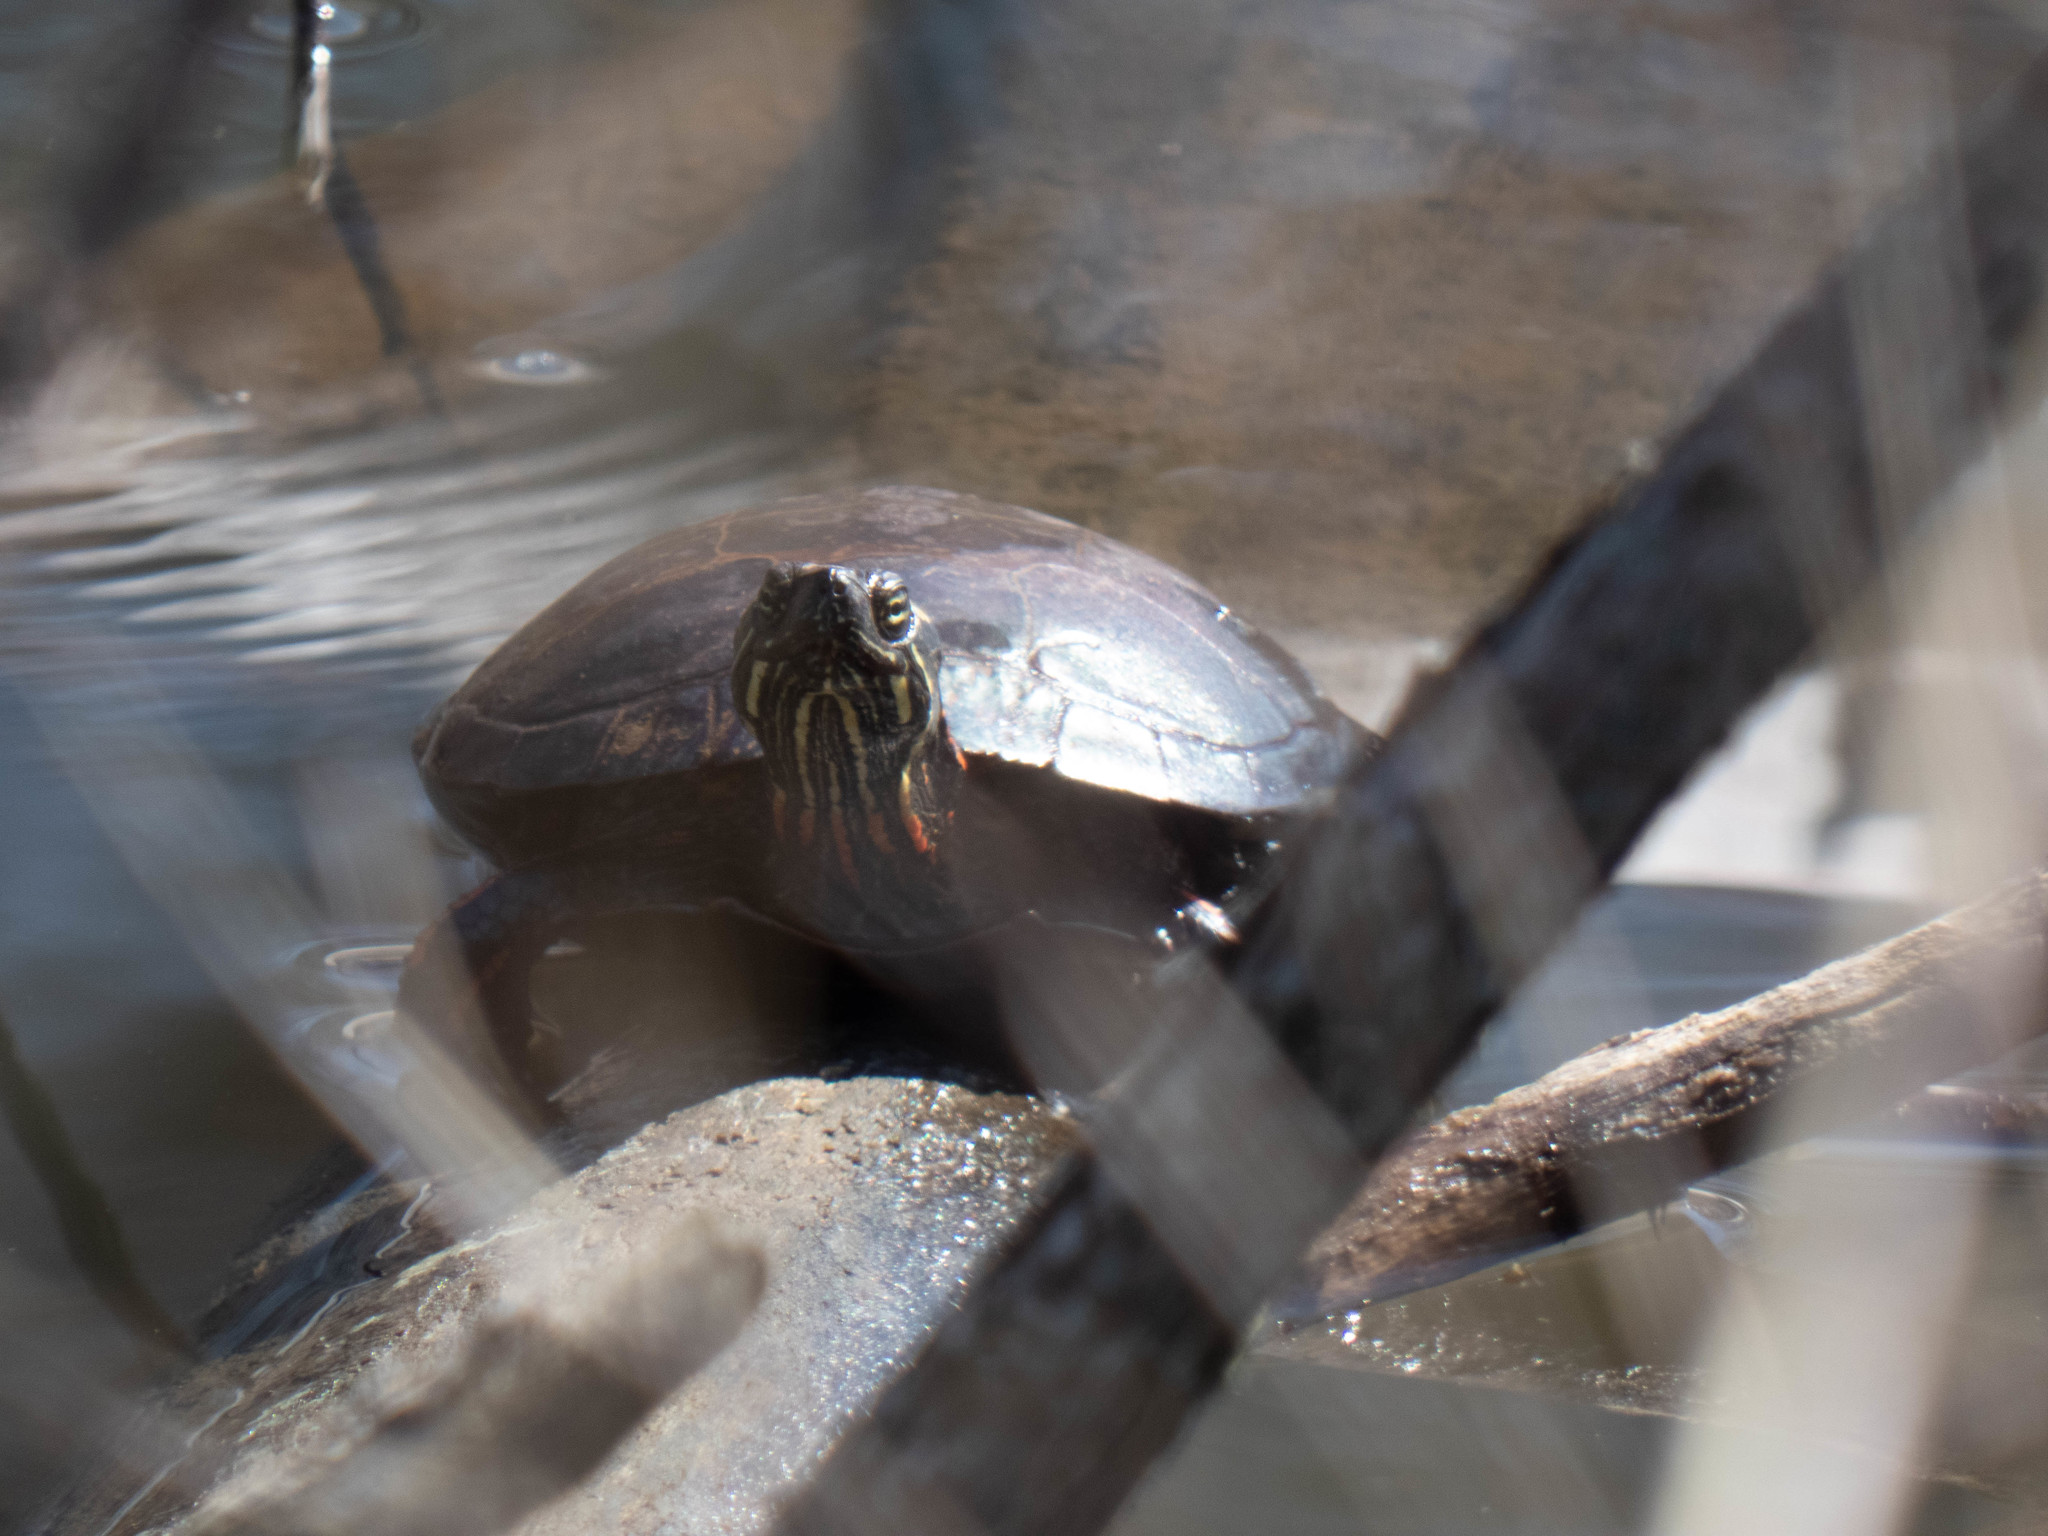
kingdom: Animalia
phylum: Chordata
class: Testudines
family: Emydidae
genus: Chrysemys
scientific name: Chrysemys picta
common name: Painted turtle
